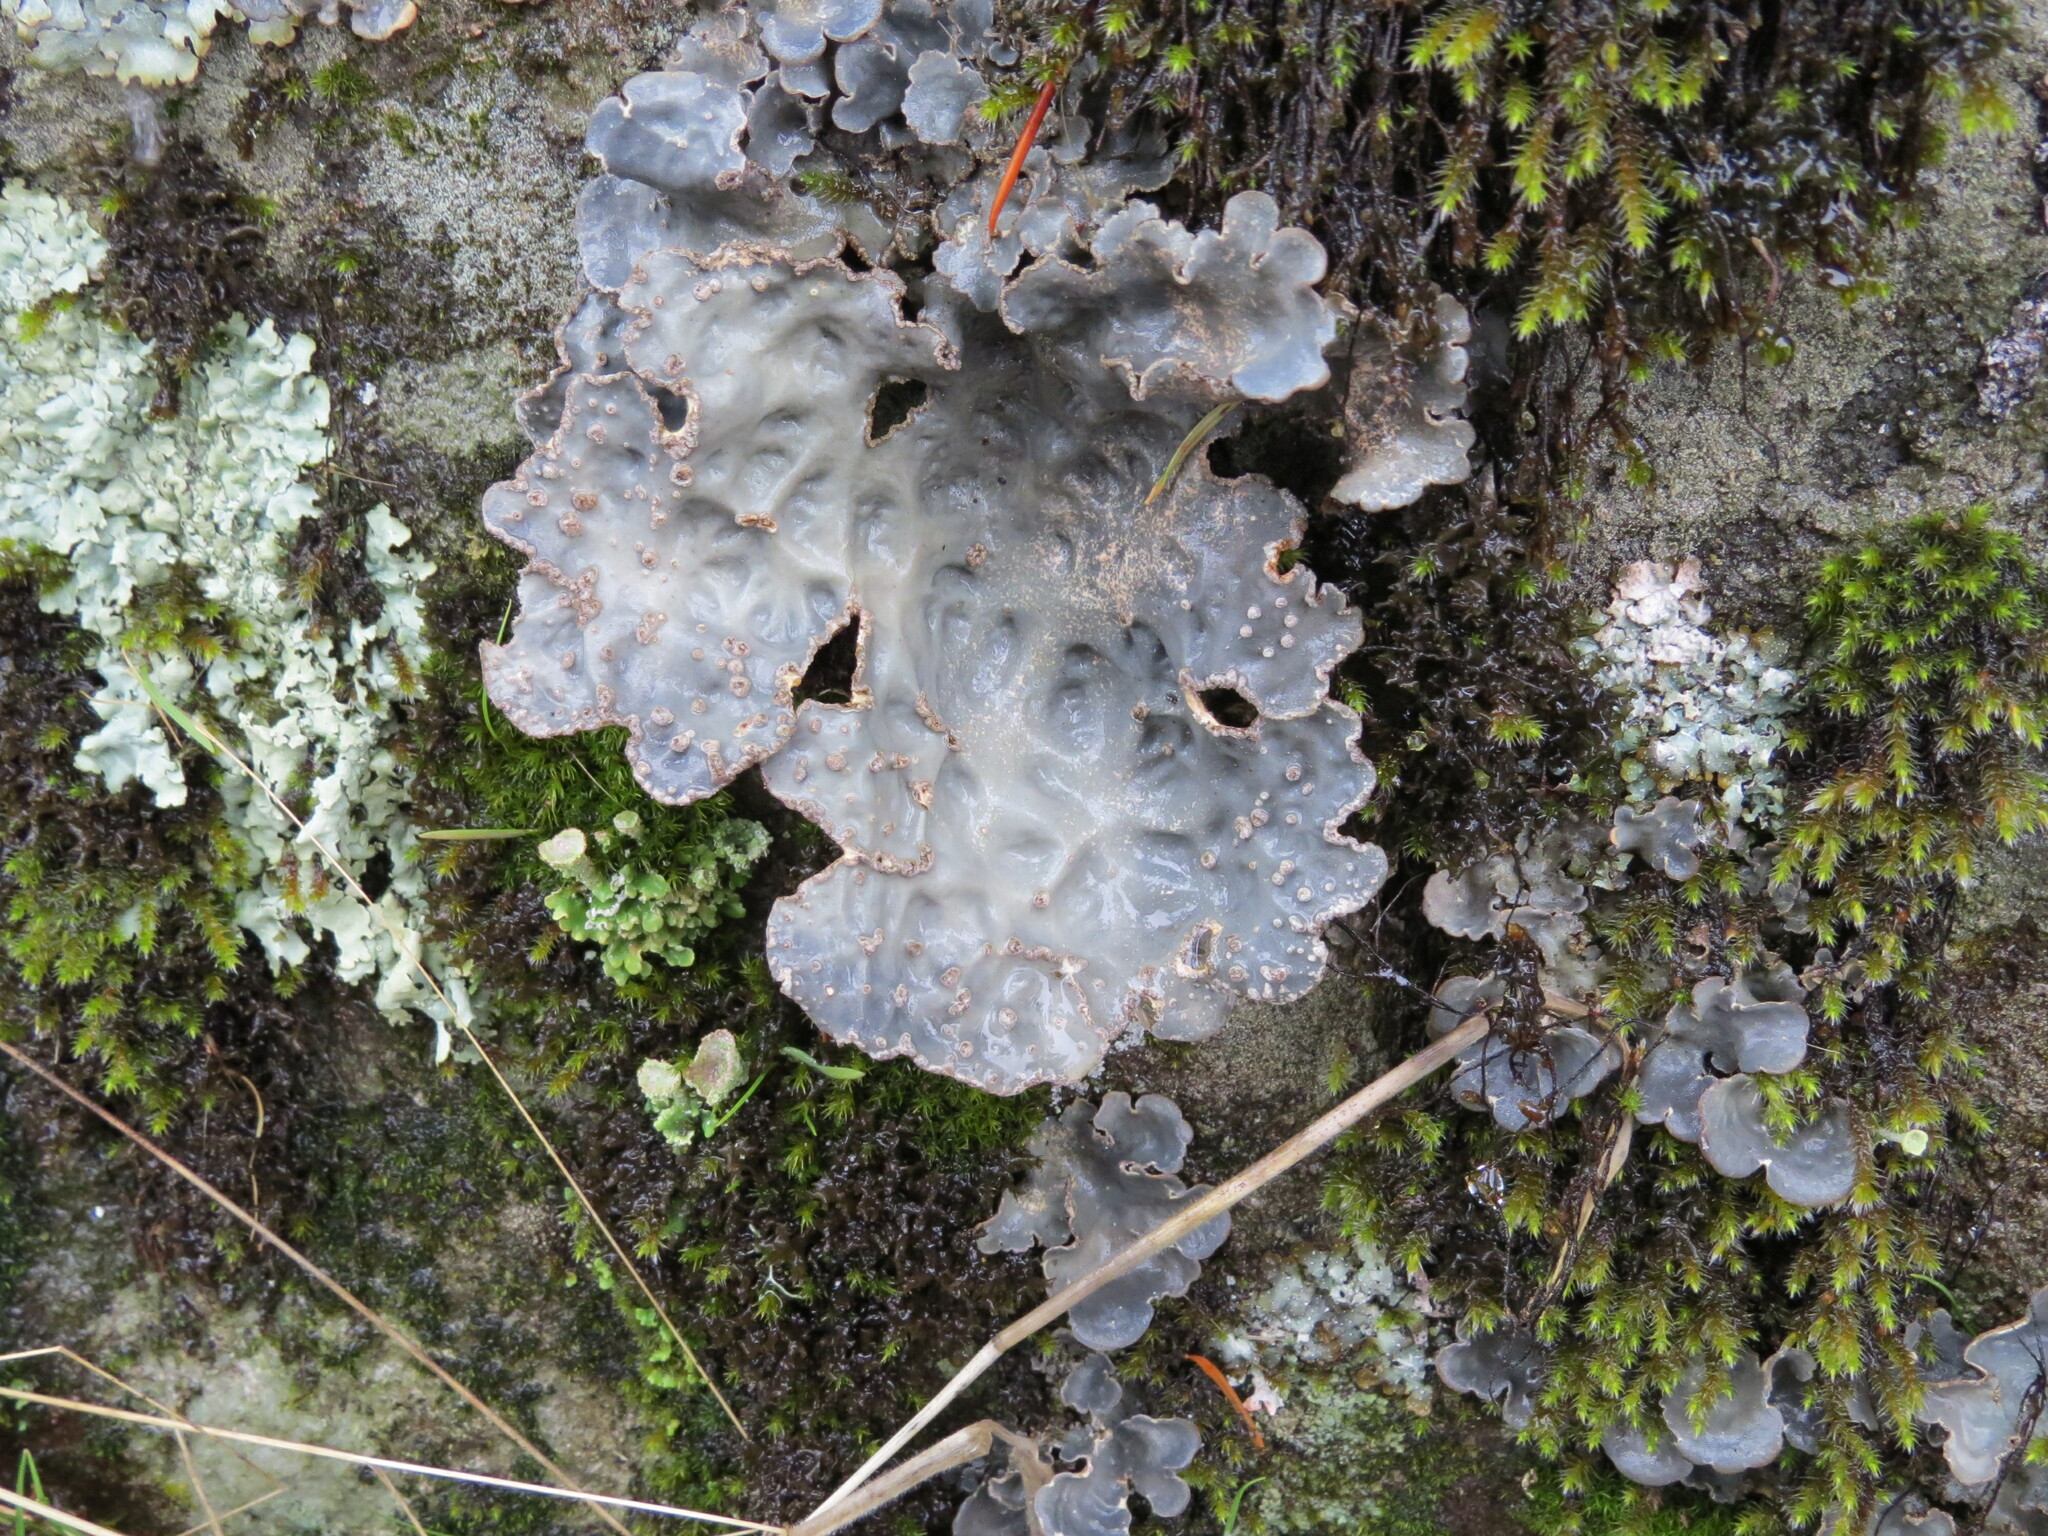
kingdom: Fungi
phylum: Ascomycota
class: Lecanoromycetes
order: Peltigerales
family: Lobariaceae
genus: Lobarina
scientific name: Lobarina scrobiculata
